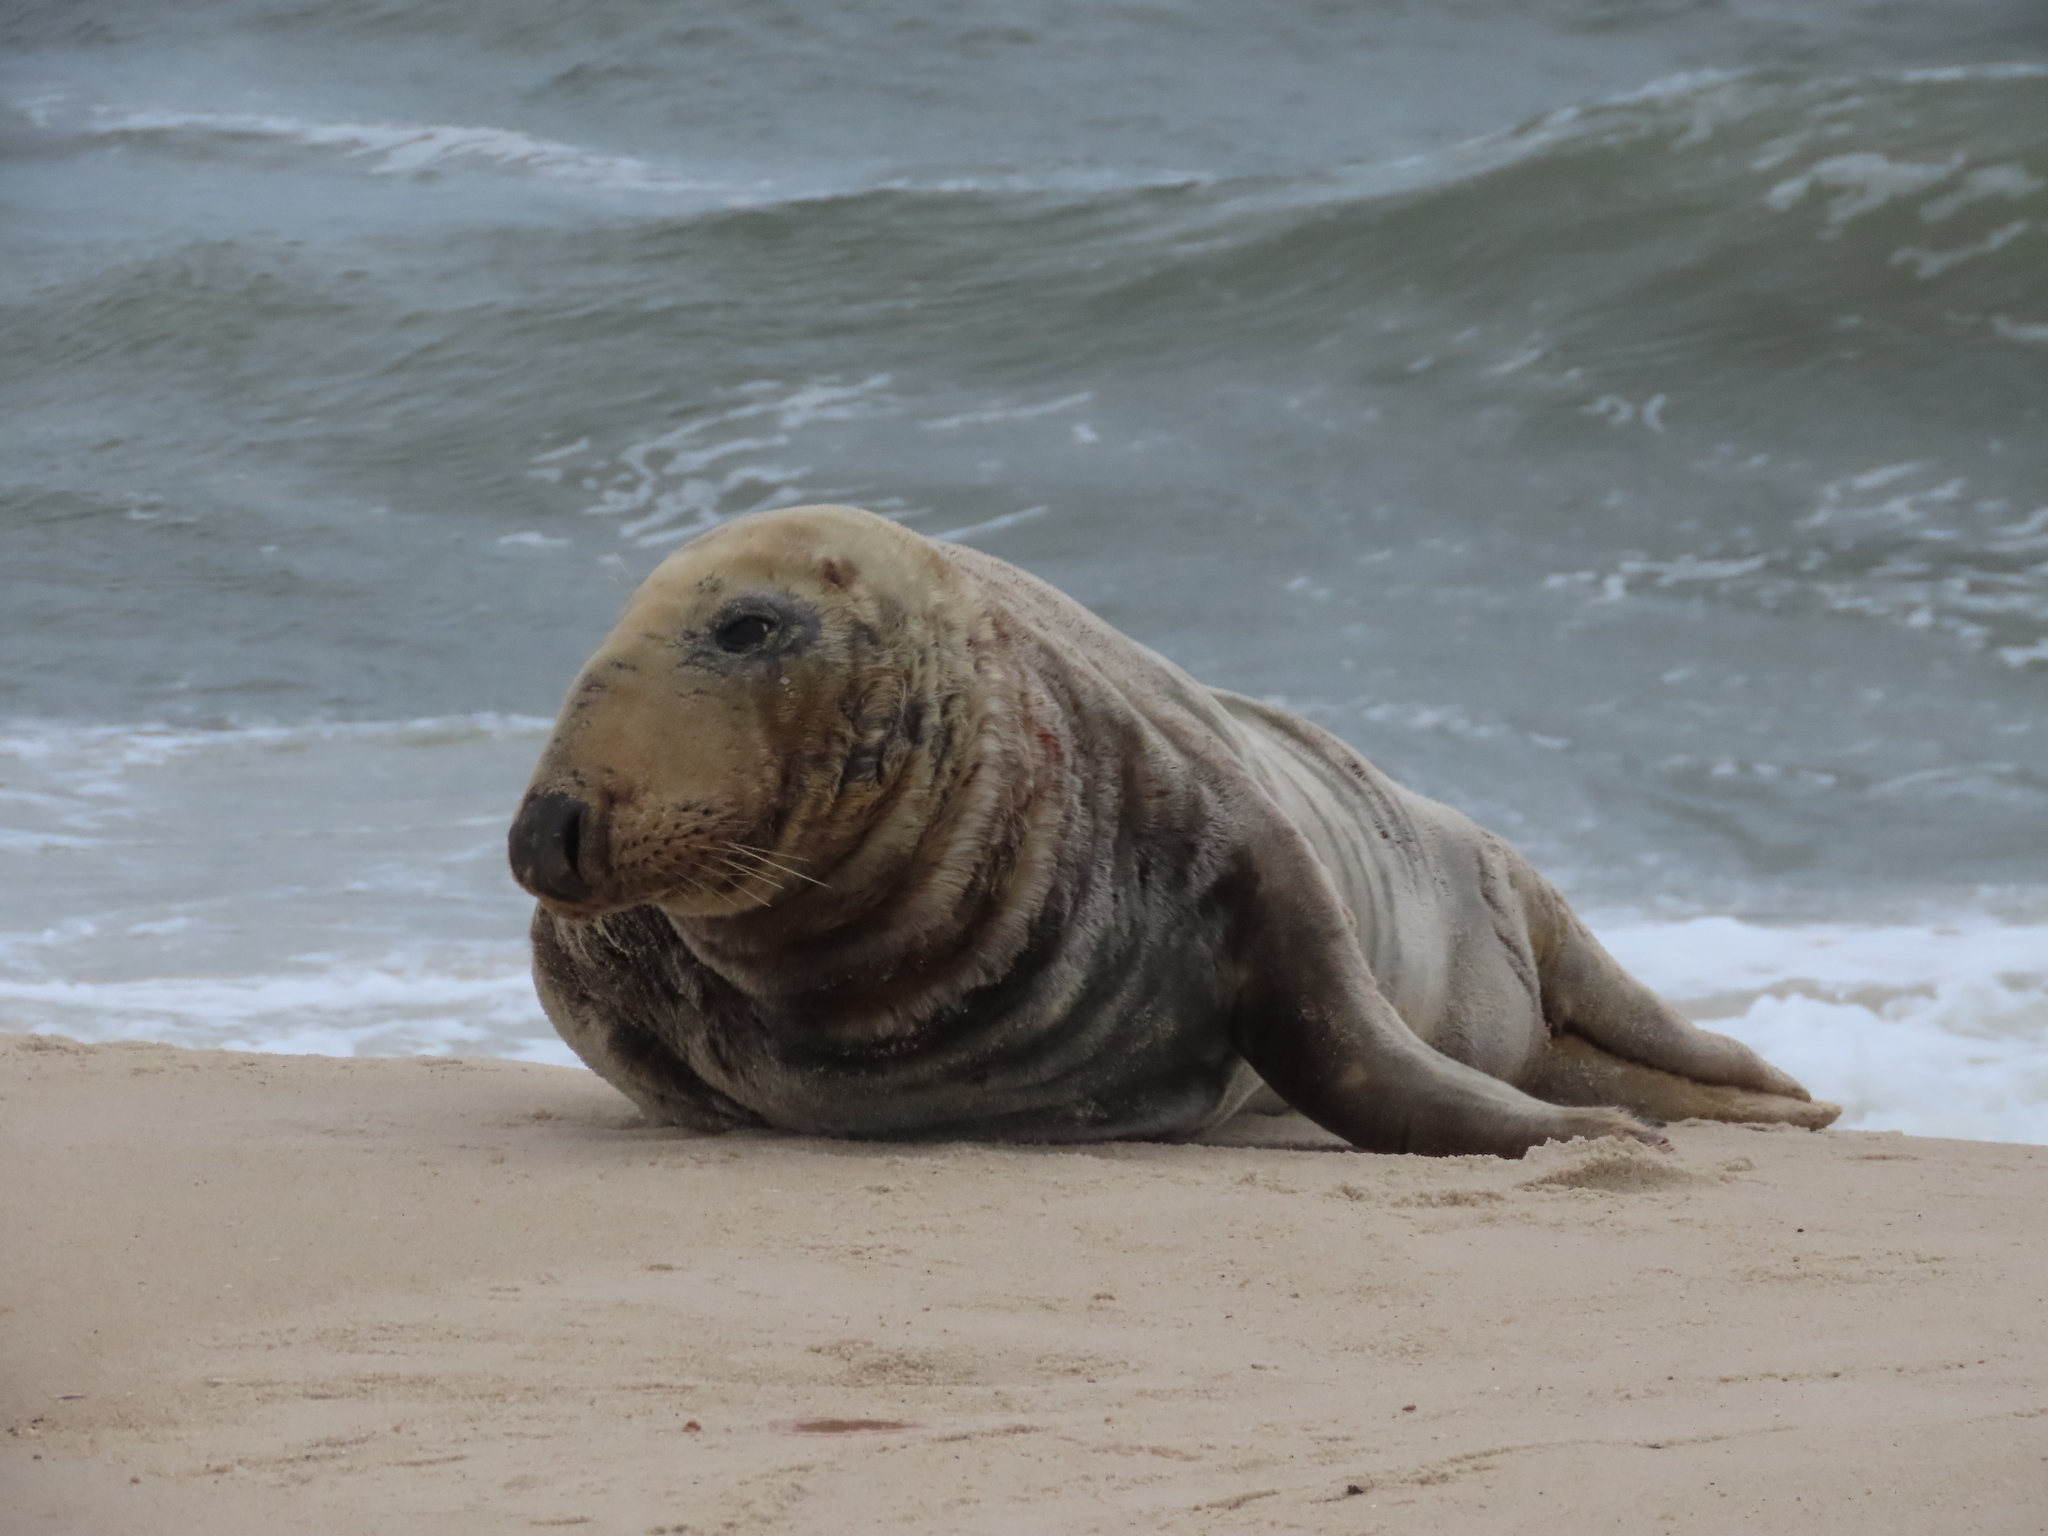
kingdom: Animalia
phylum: Chordata
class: Mammalia
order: Carnivora
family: Phocidae
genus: Halichoerus
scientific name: Halichoerus grypus
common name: Grey seal
